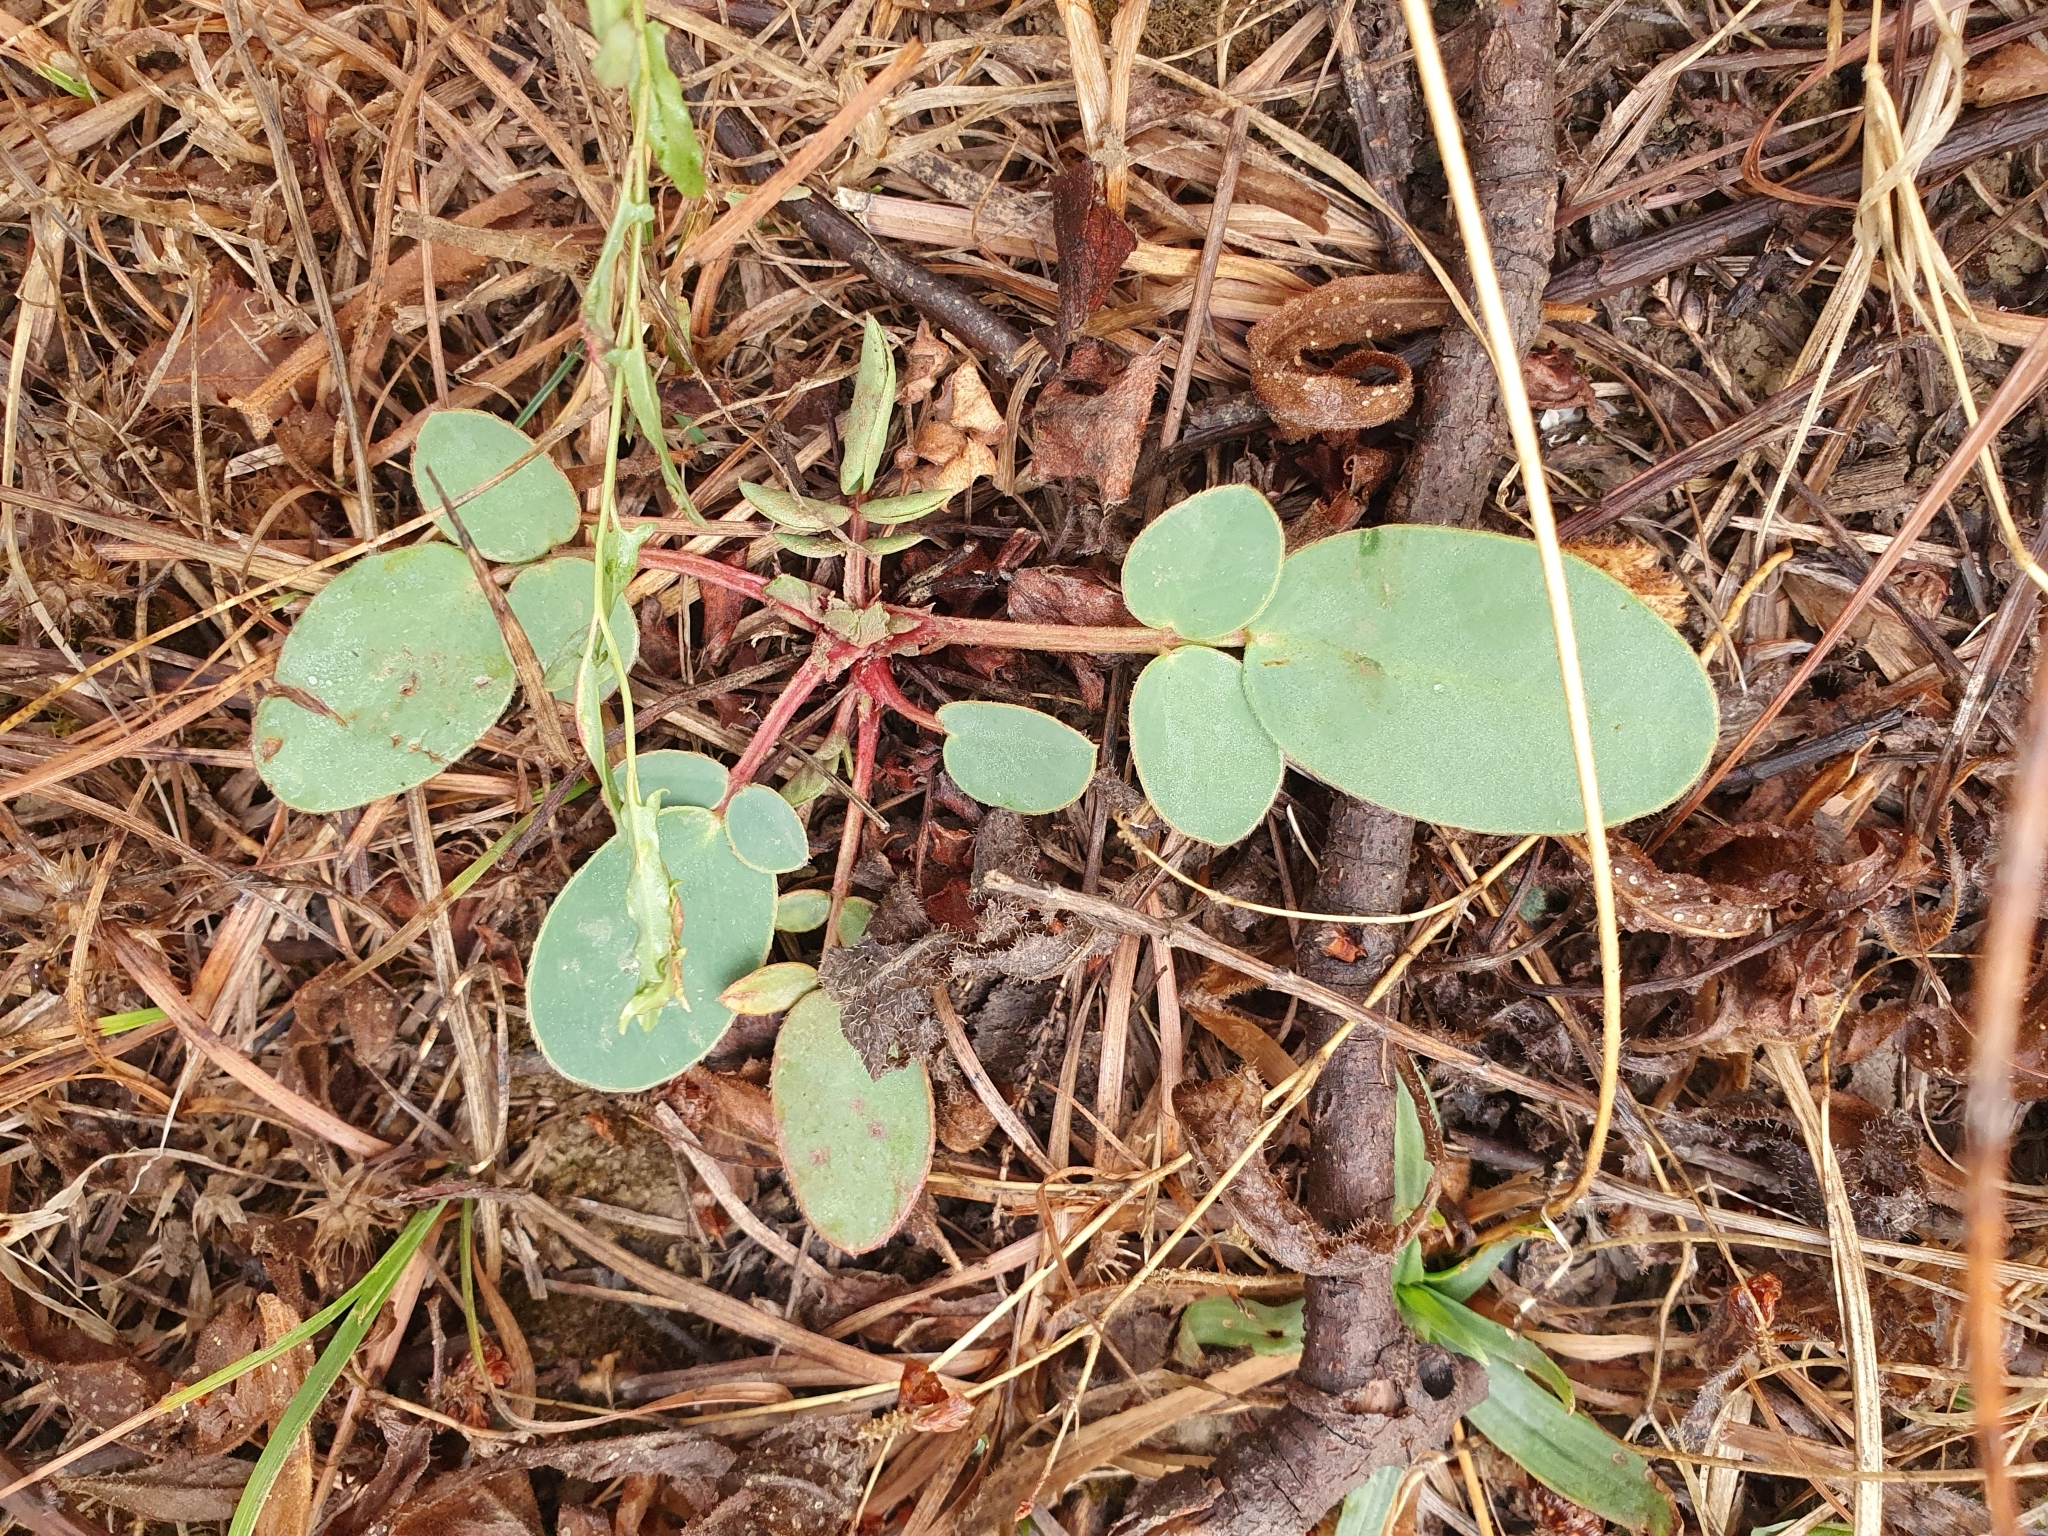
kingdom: Plantae
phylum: Tracheophyta
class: Magnoliopsida
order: Fabales
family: Fabaceae
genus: Sulla
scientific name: Sulla flexuosa
